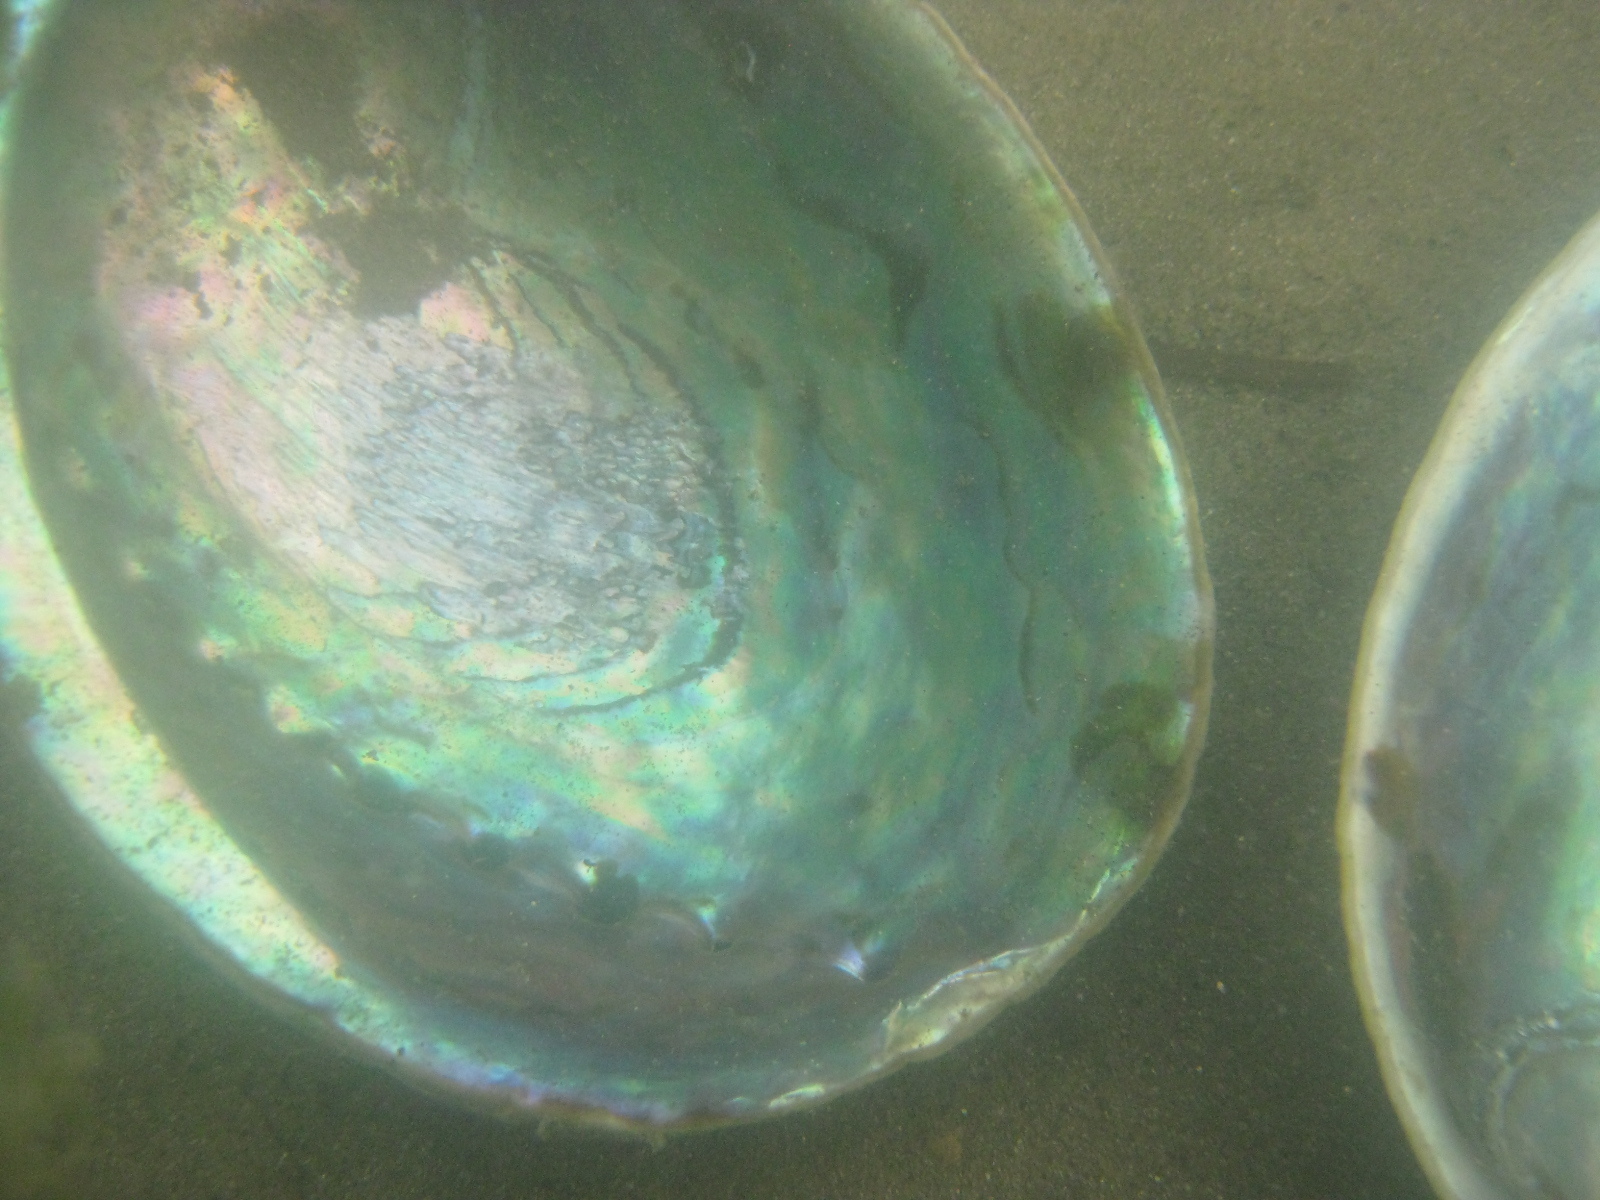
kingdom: Animalia
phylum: Mollusca
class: Gastropoda
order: Lepetellida
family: Haliotidae
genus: Haliotis
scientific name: Haliotis iris
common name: Abalone
